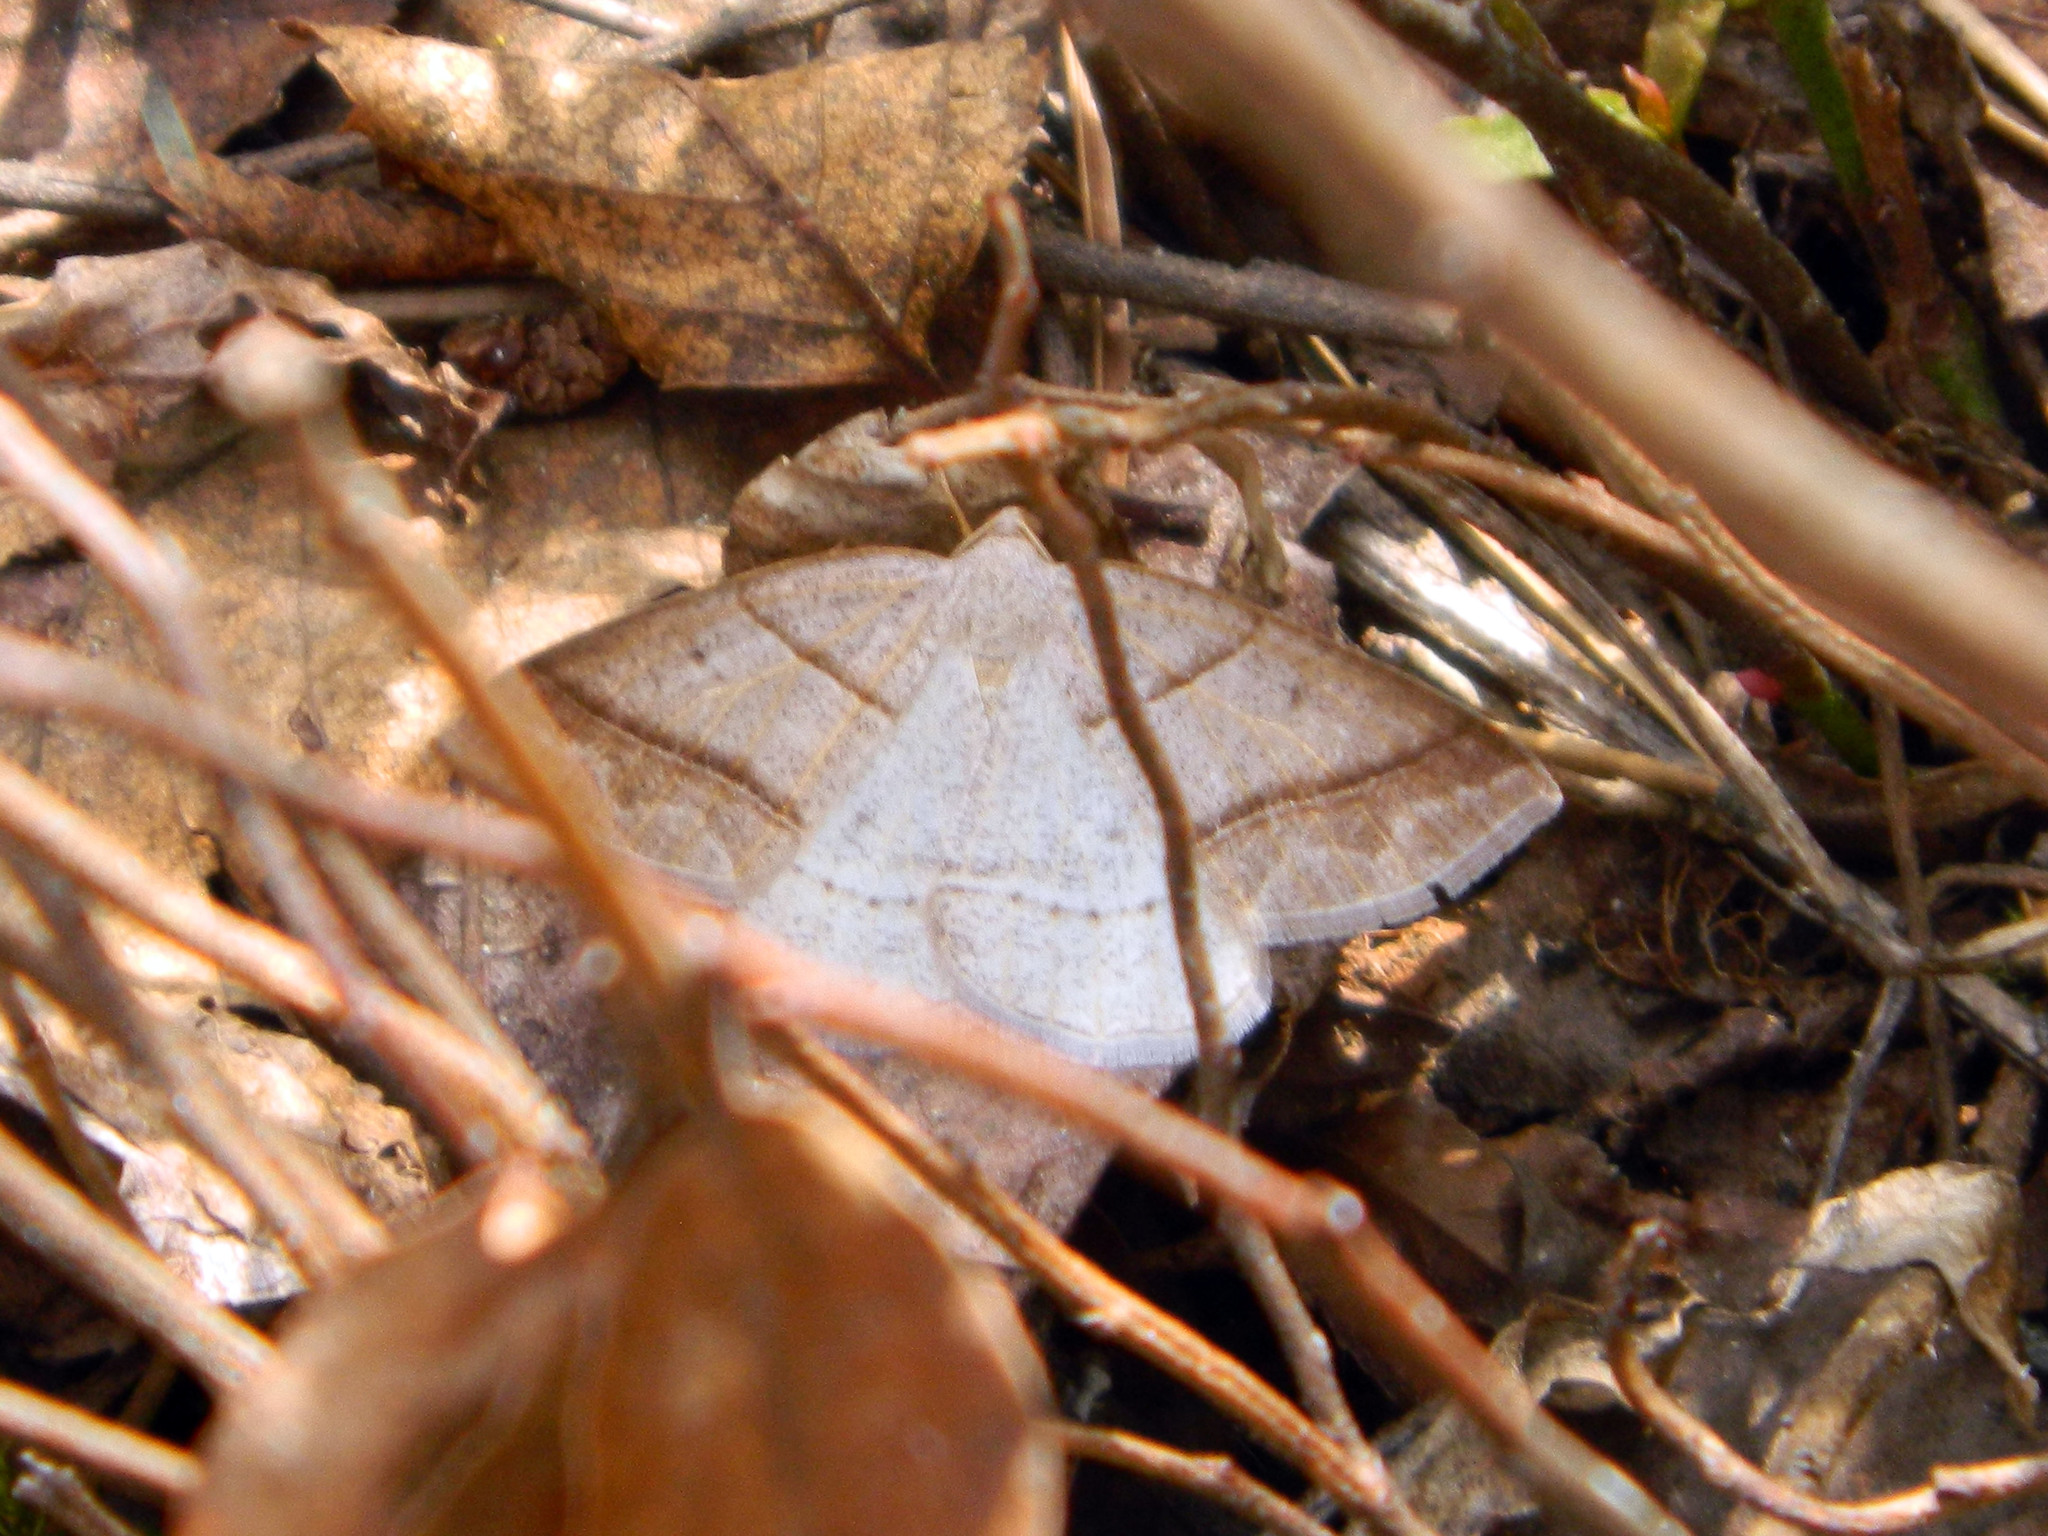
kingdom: Animalia
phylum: Arthropoda
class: Insecta
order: Lepidoptera
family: Pterophoridae
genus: Pterophorus
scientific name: Pterophorus Petrophora subaequaria
